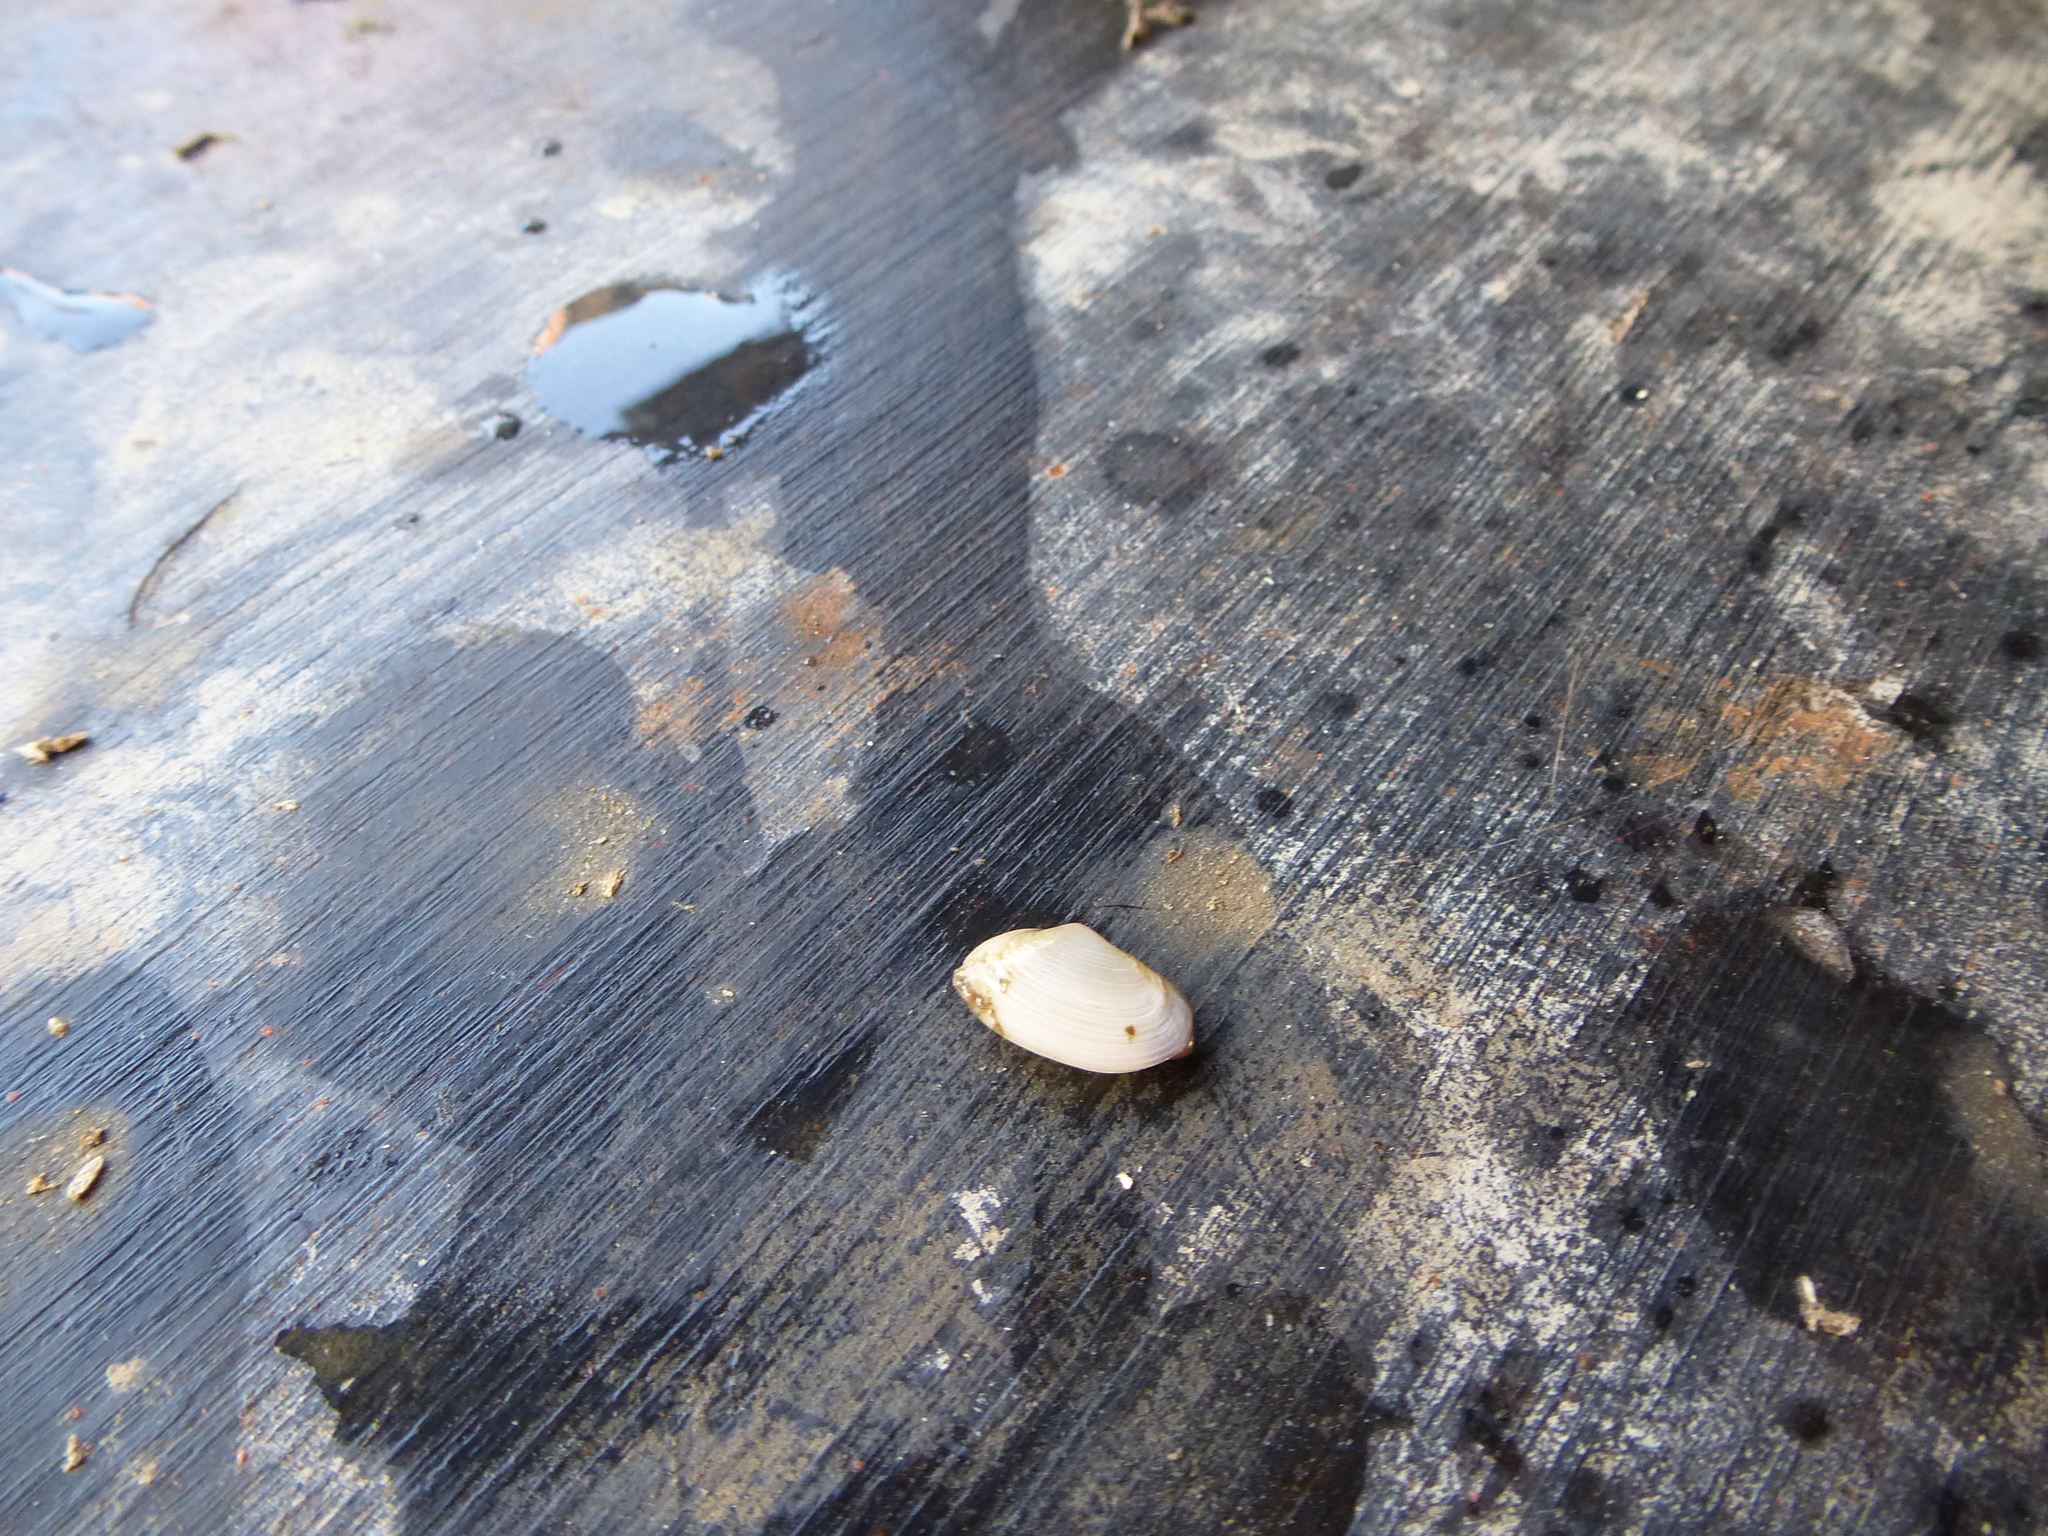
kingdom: Animalia
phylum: Mollusca
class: Bivalvia
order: Myida
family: Myidae
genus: Mya
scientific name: Mya arenaria
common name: Soft-shelled clam
